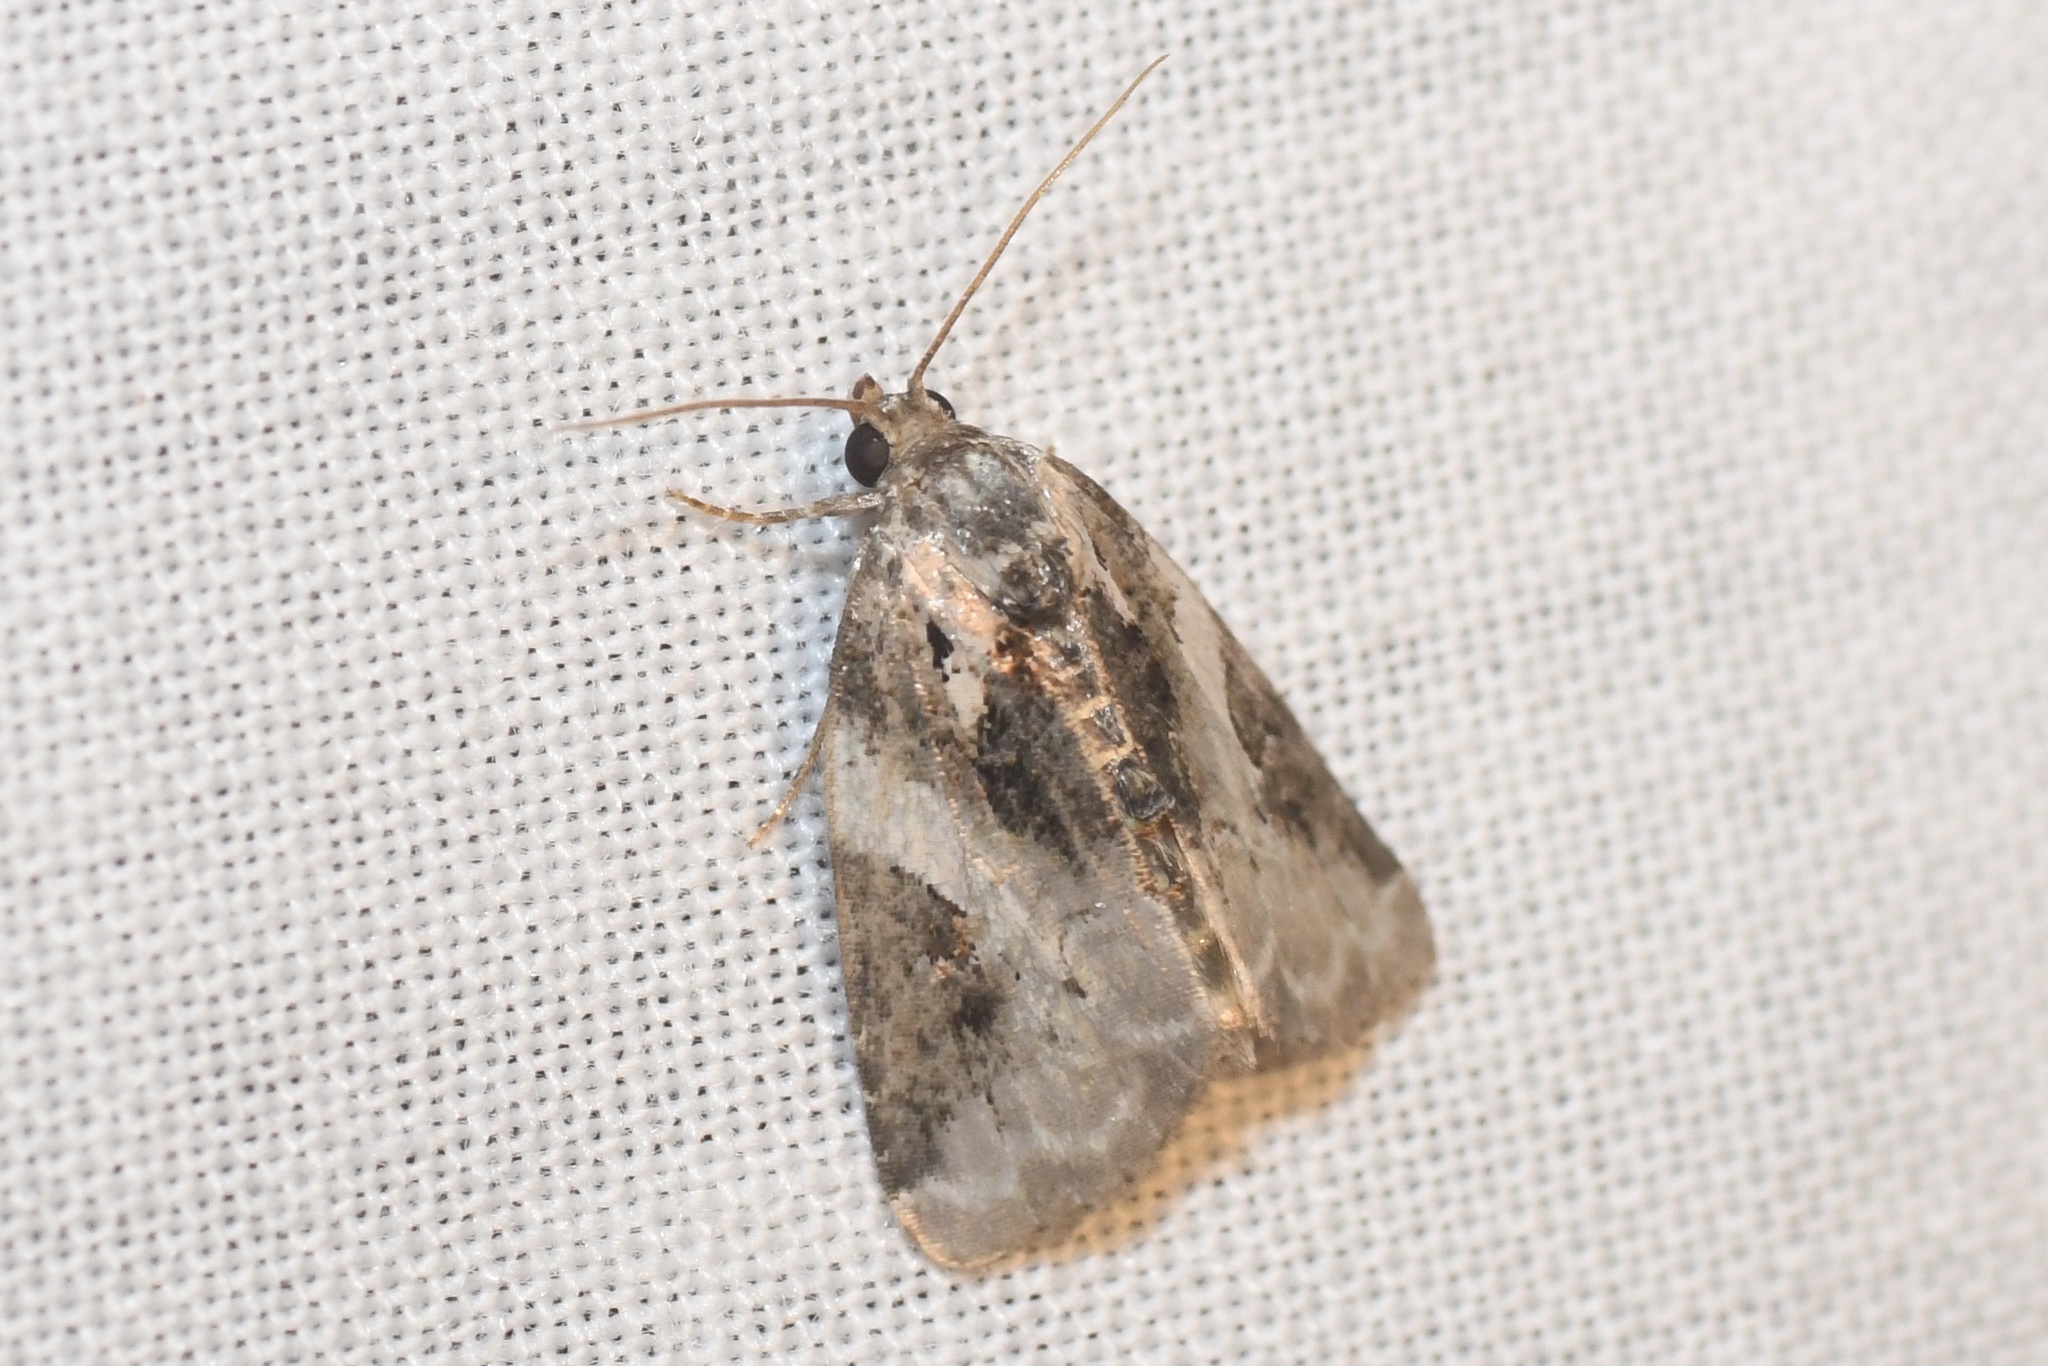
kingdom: Animalia
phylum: Arthropoda
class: Insecta
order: Lepidoptera
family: Noctuidae
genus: Pseudeustrotia
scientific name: Pseudeustrotia carneola
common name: Pink-barred lithacodia moth
